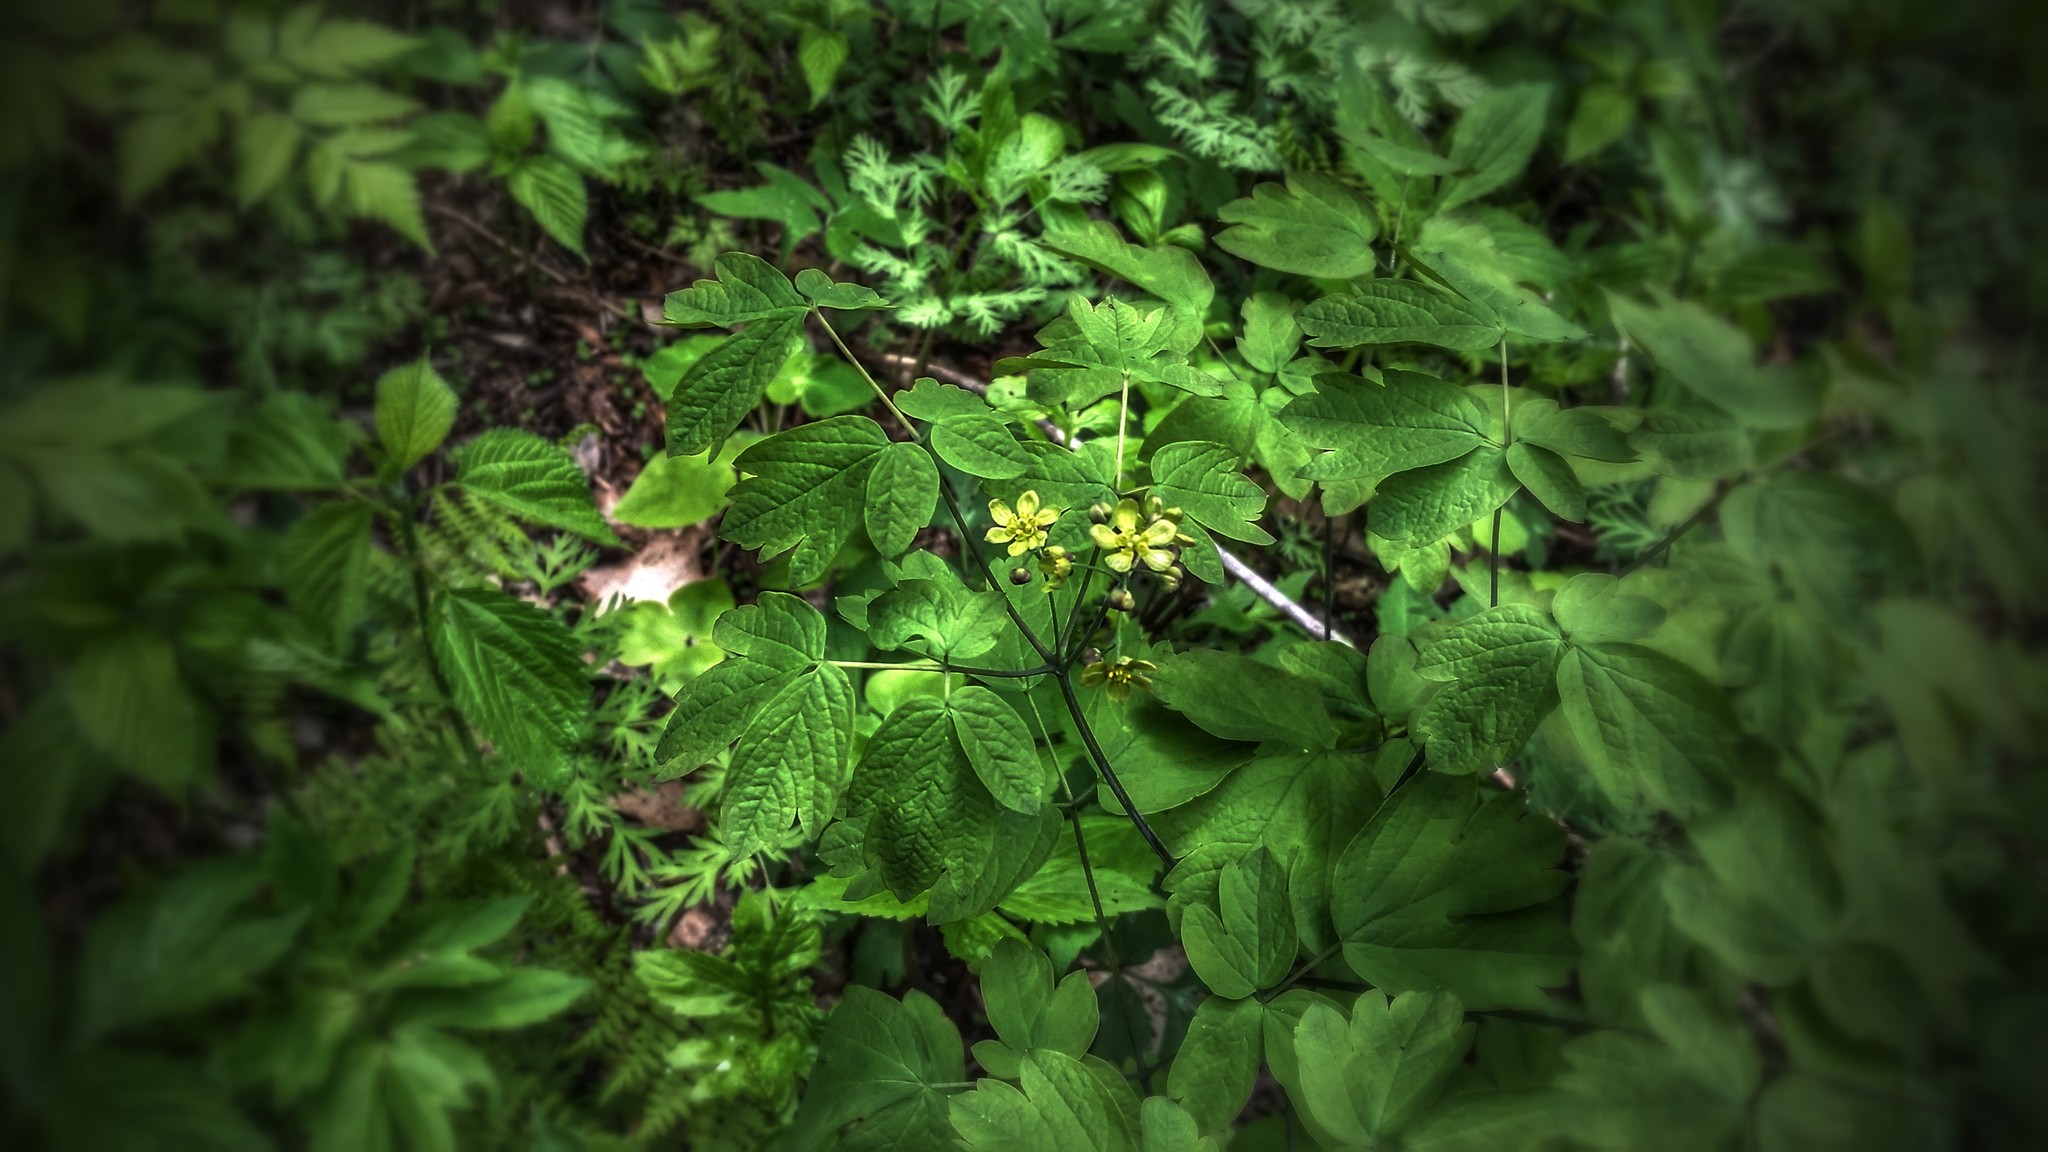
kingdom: Plantae
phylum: Tracheophyta
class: Magnoliopsida
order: Ranunculales
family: Berberidaceae
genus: Caulophyllum
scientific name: Caulophyllum thalictroides
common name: Blue cohosh
